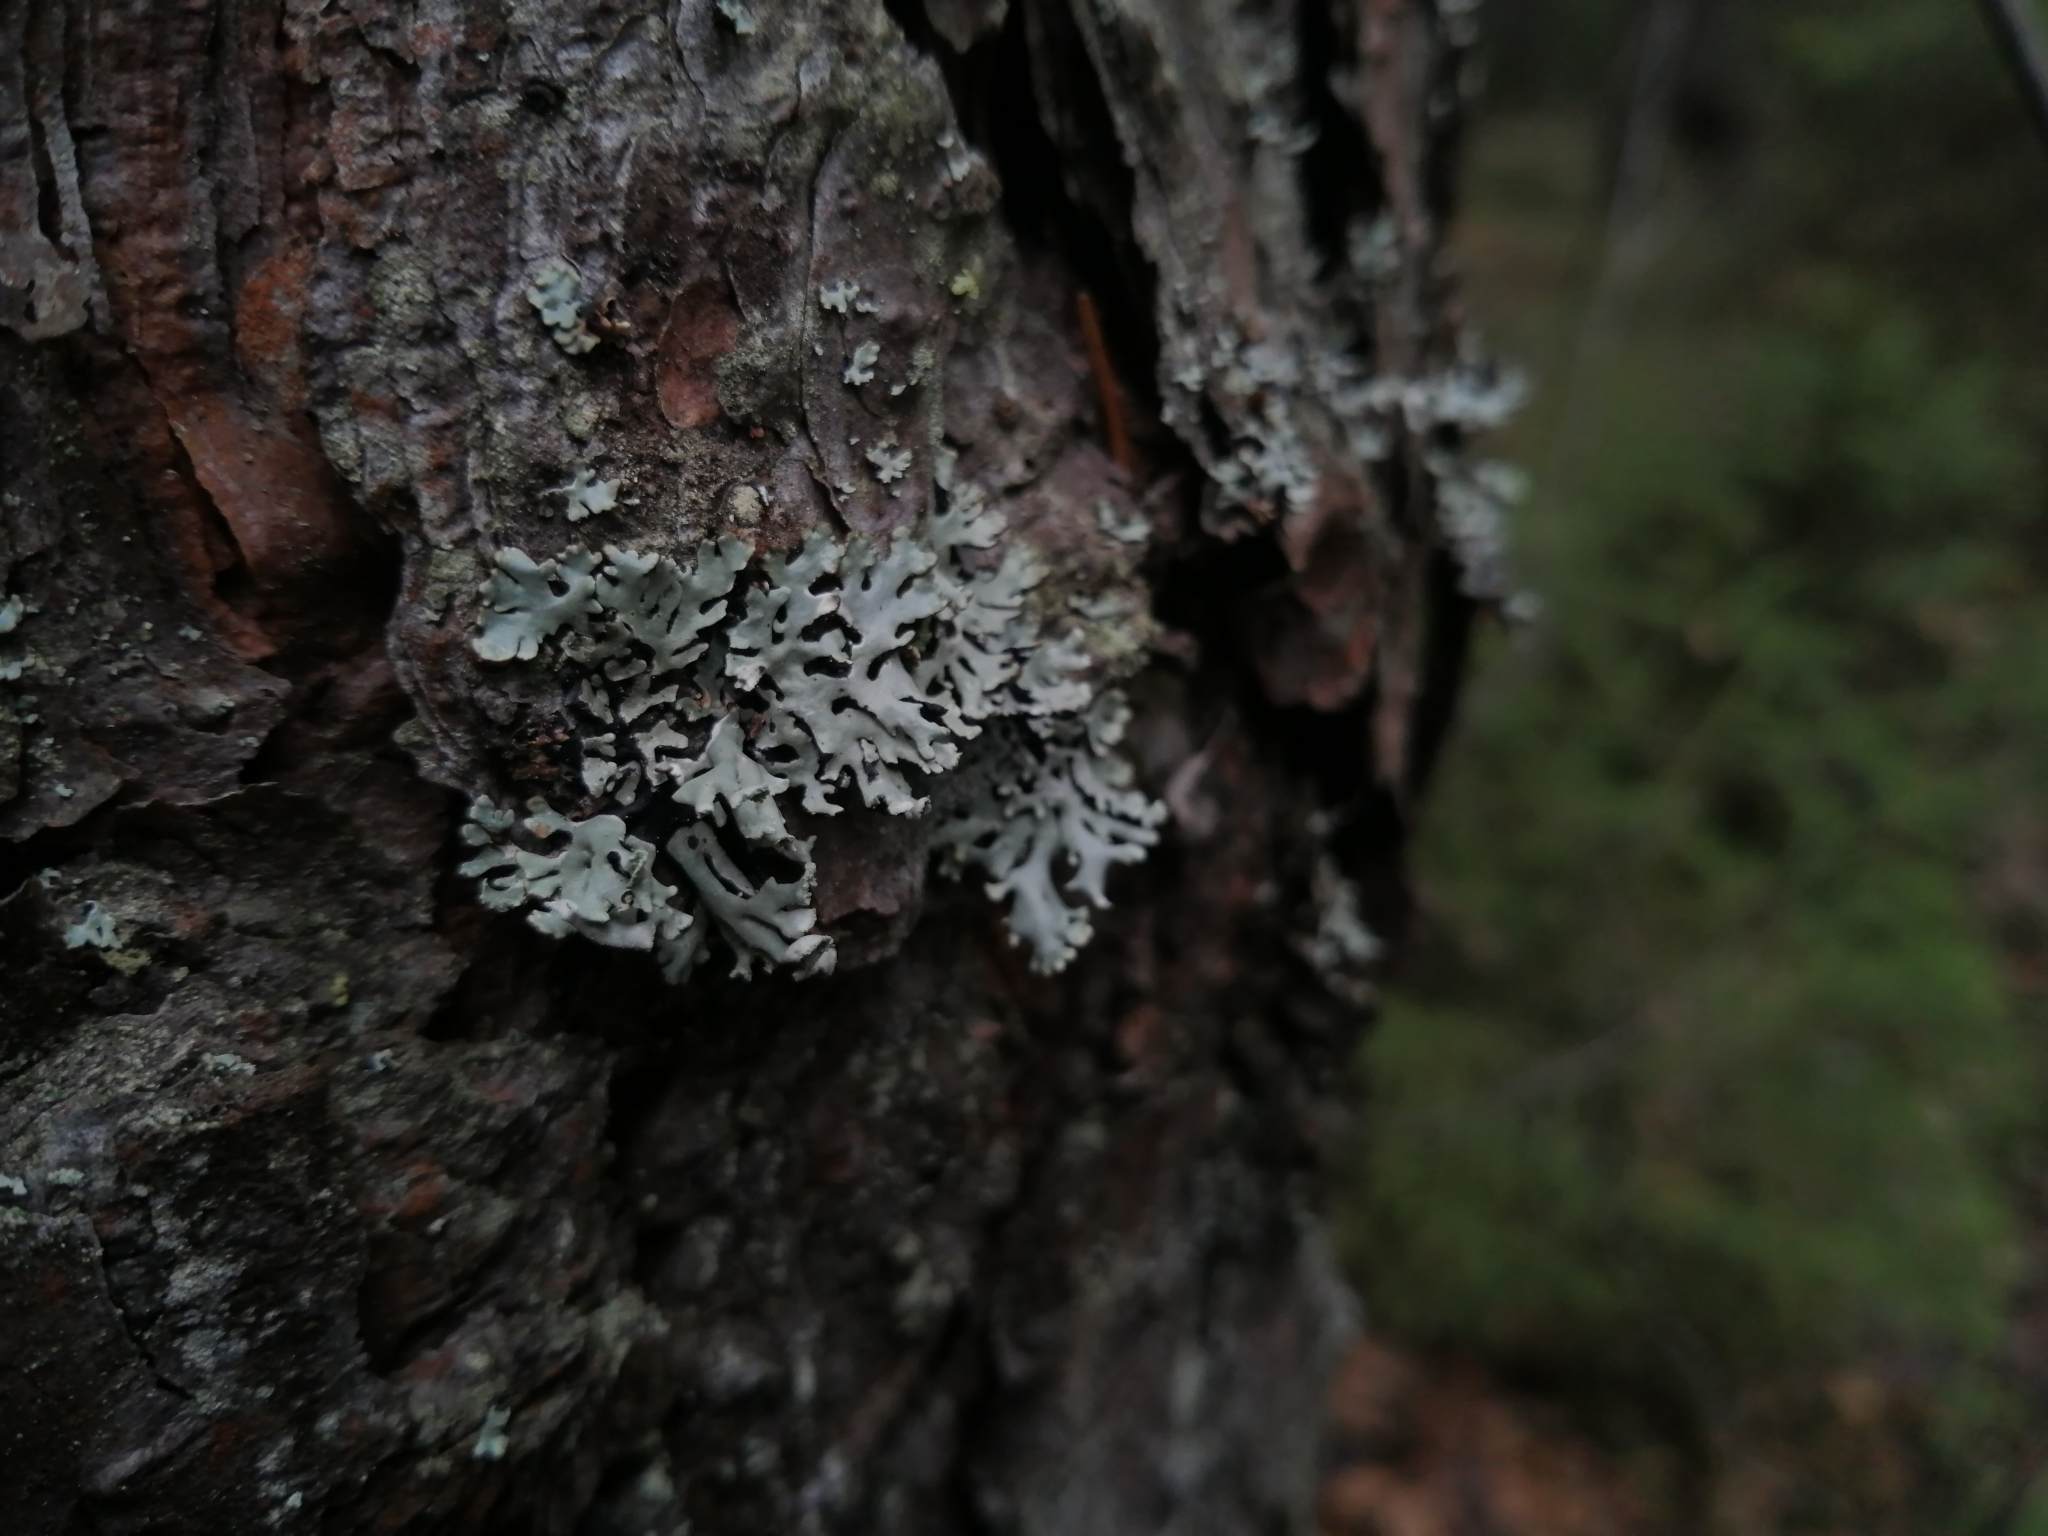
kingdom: Fungi
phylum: Ascomycota
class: Lecanoromycetes
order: Lecanorales
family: Parmeliaceae
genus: Hypogymnia
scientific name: Hypogymnia physodes
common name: Dark crottle
